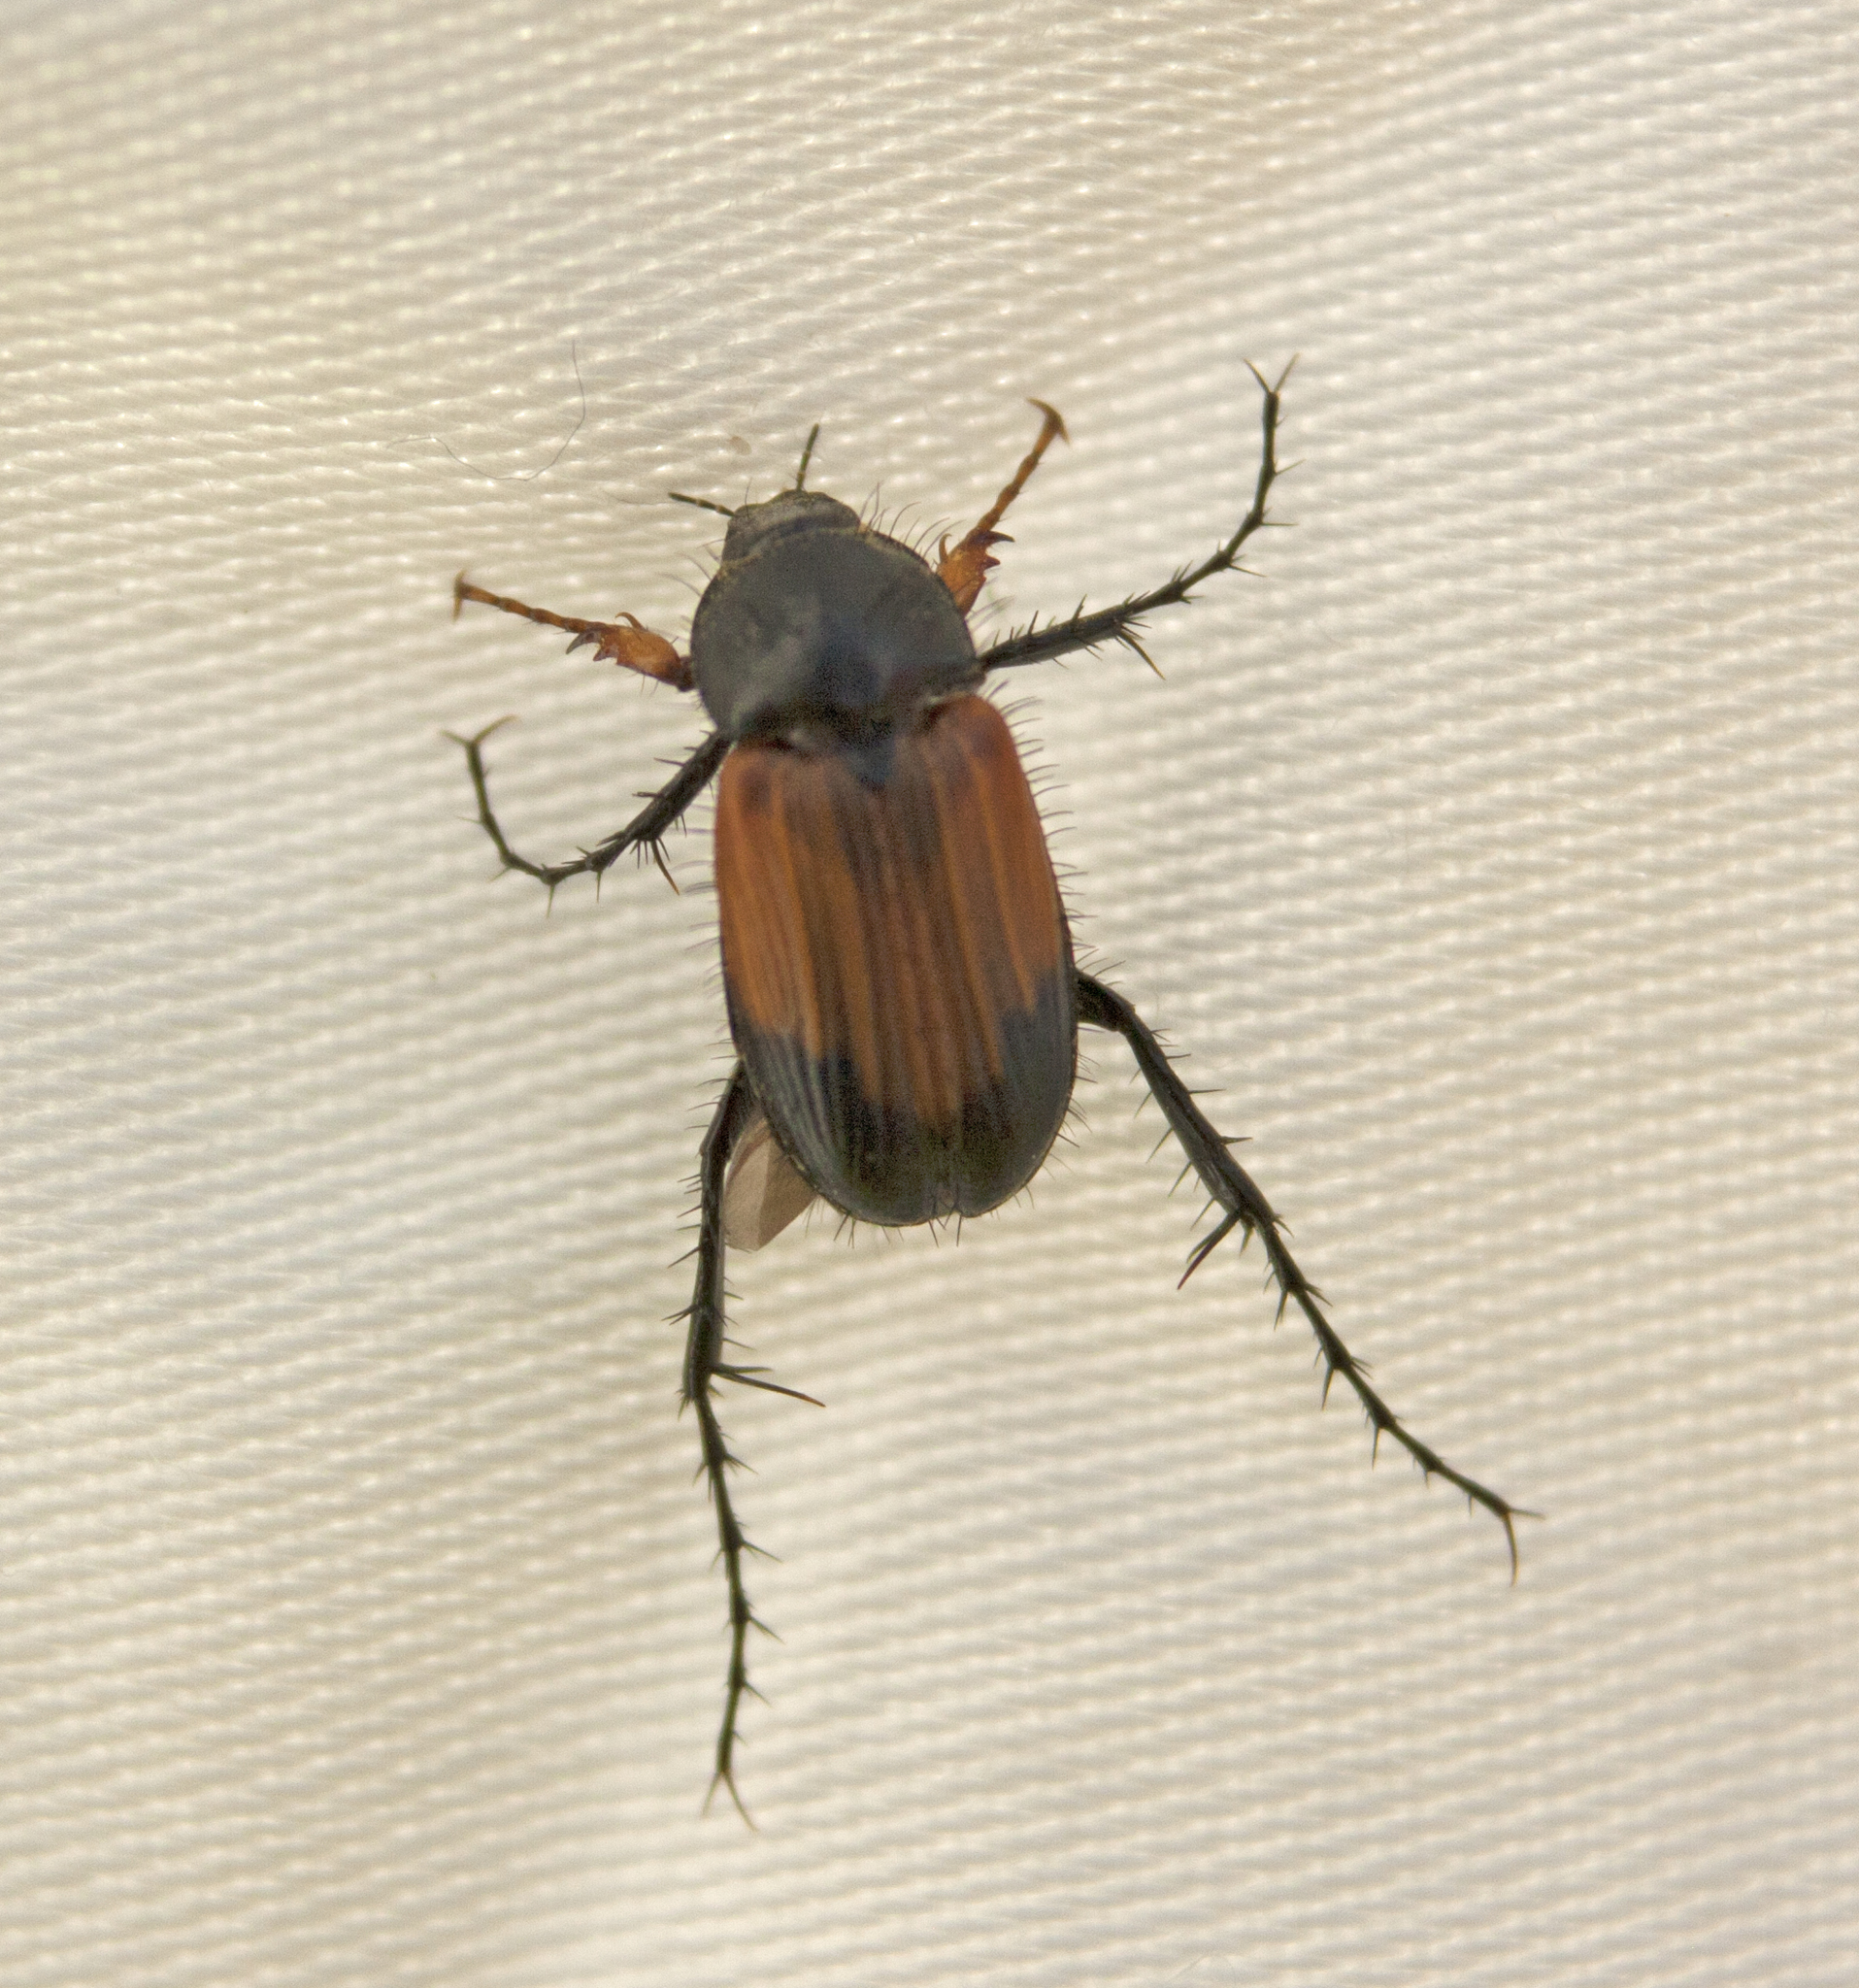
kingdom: Animalia
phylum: Arthropoda
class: Insecta
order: Coleoptera
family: Scarabaeidae
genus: Phyllotocus
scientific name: Phyllotocus navicularis
